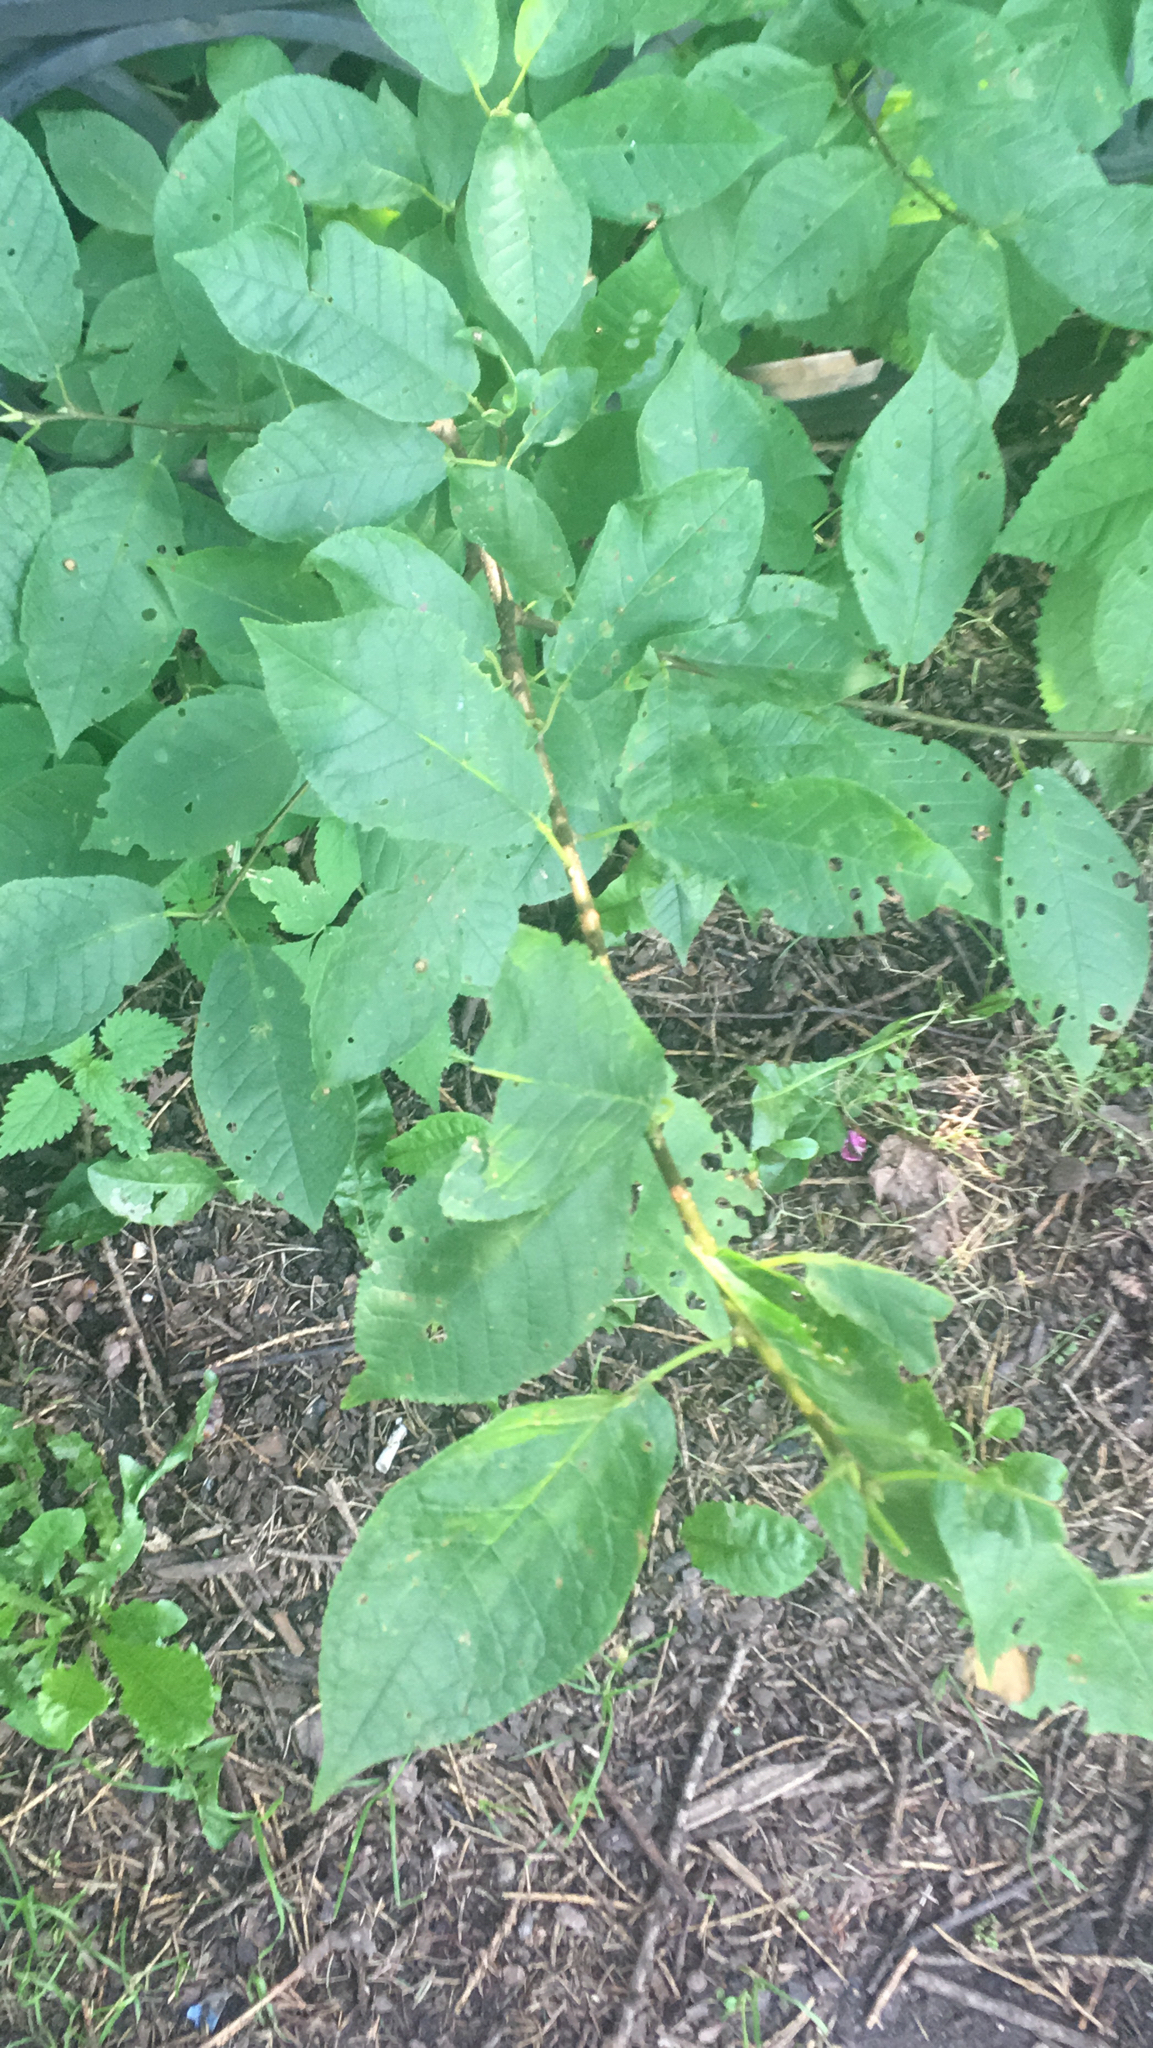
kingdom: Plantae
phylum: Tracheophyta
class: Magnoliopsida
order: Rosales
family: Rosaceae
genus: Prunus
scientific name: Prunus padus
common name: Bird cherry
